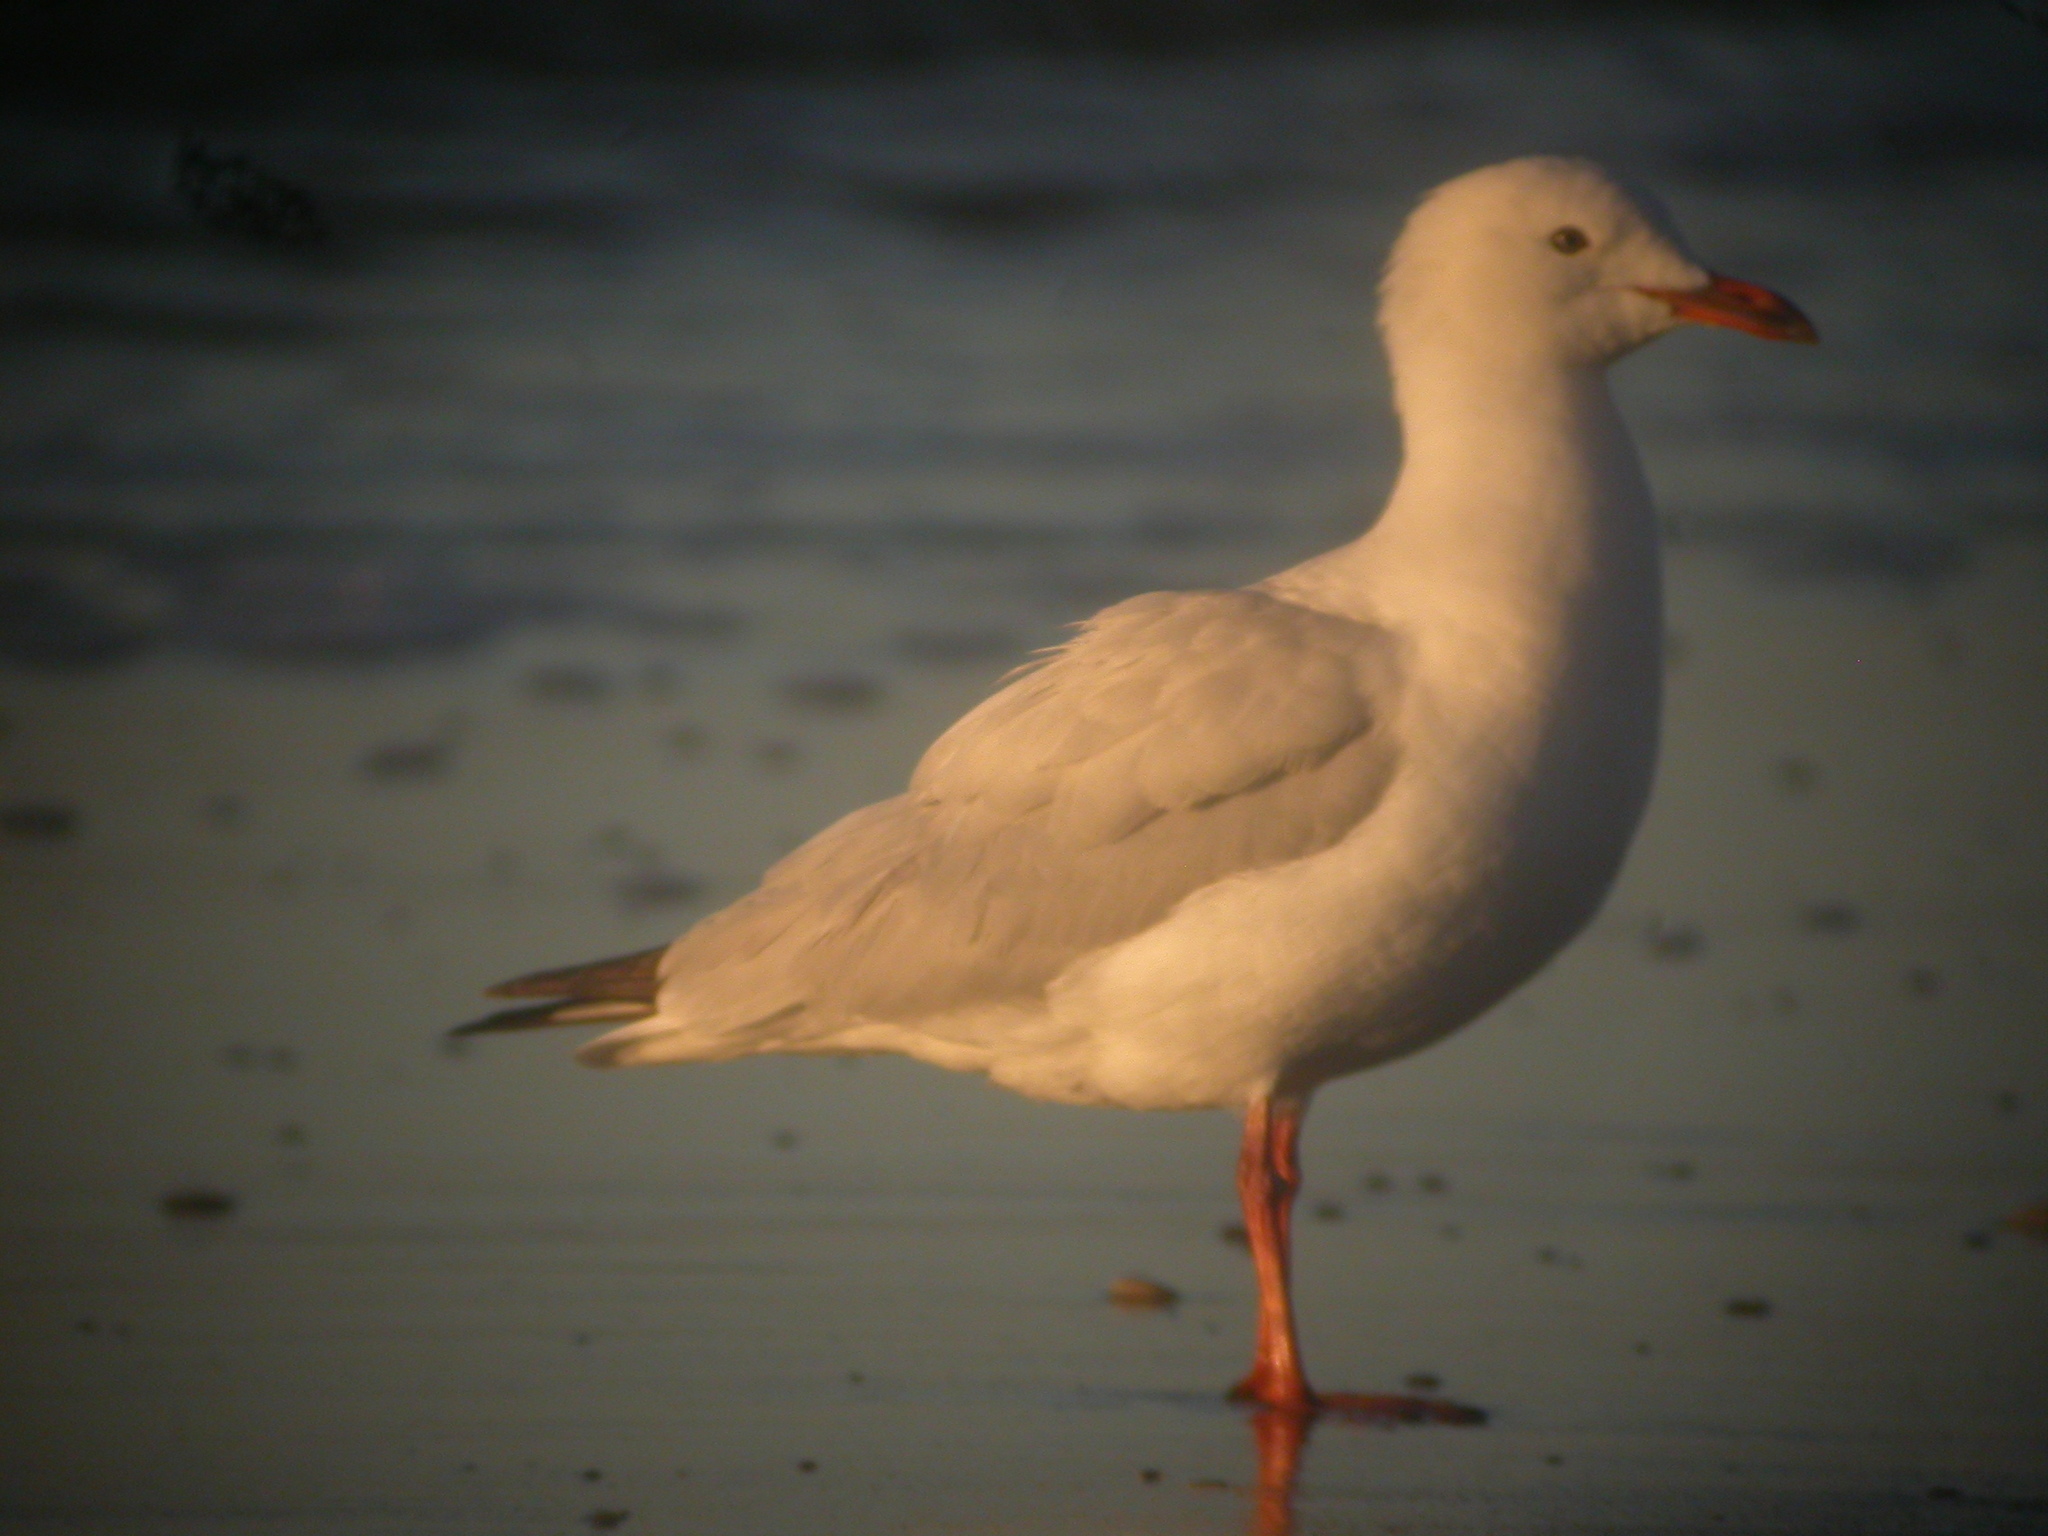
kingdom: Animalia
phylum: Chordata
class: Aves
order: Charadriiformes
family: Laridae
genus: Chroicocephalus
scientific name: Chroicocephalus novaehollandiae
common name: Silver gull
